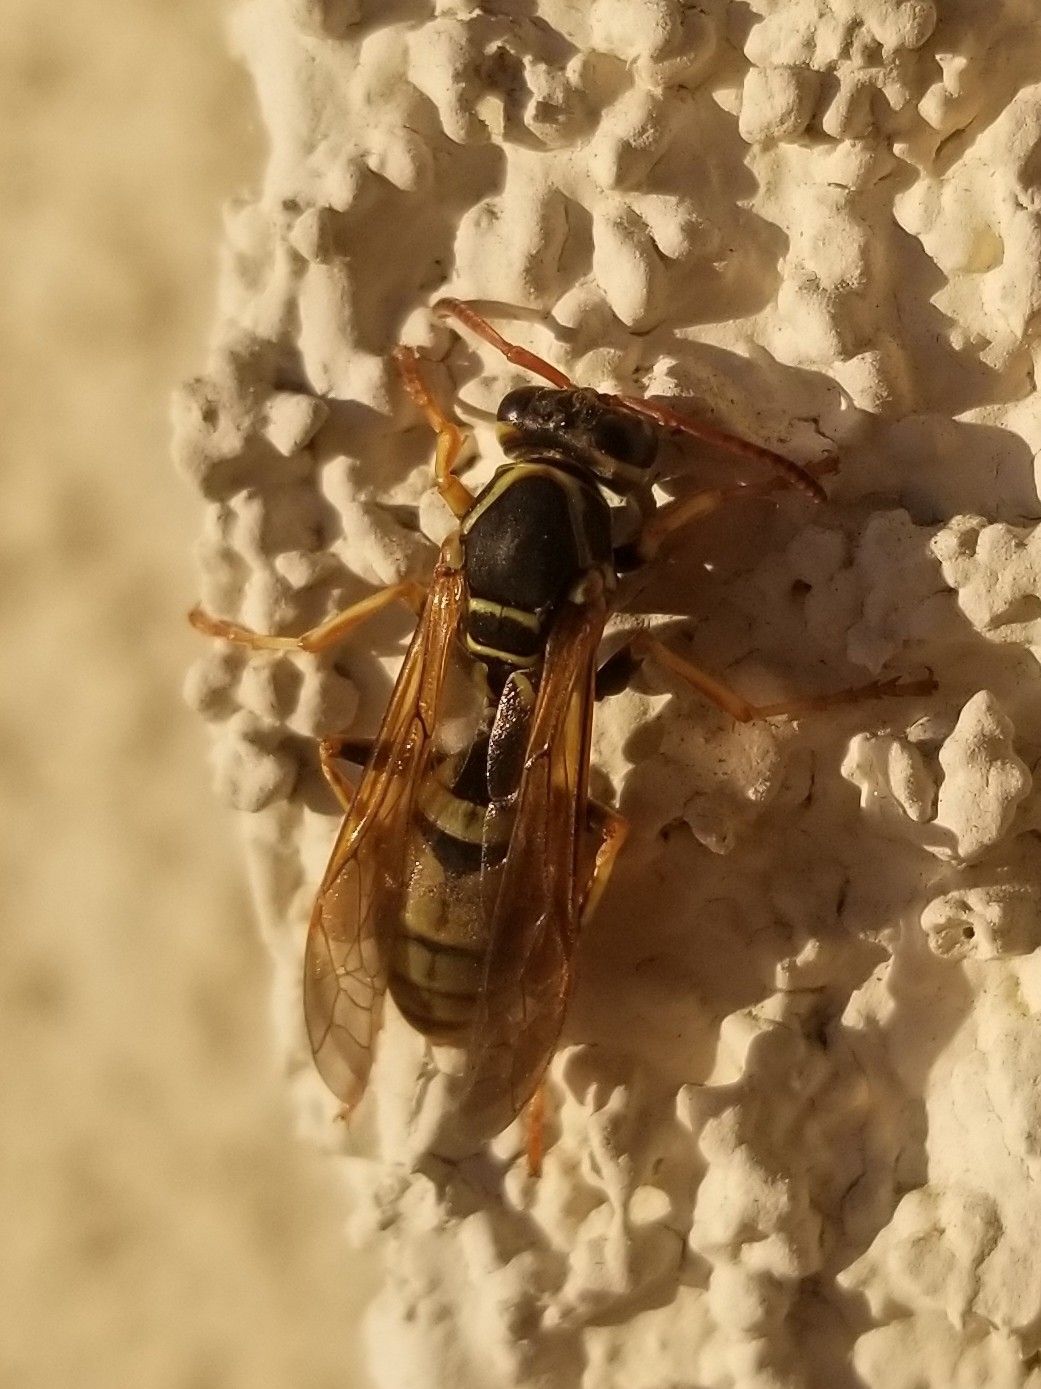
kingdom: Animalia
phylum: Arthropoda
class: Insecta
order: Hymenoptera
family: Eumenidae
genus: Polistes
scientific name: Polistes aurifer
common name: Paper wasp
